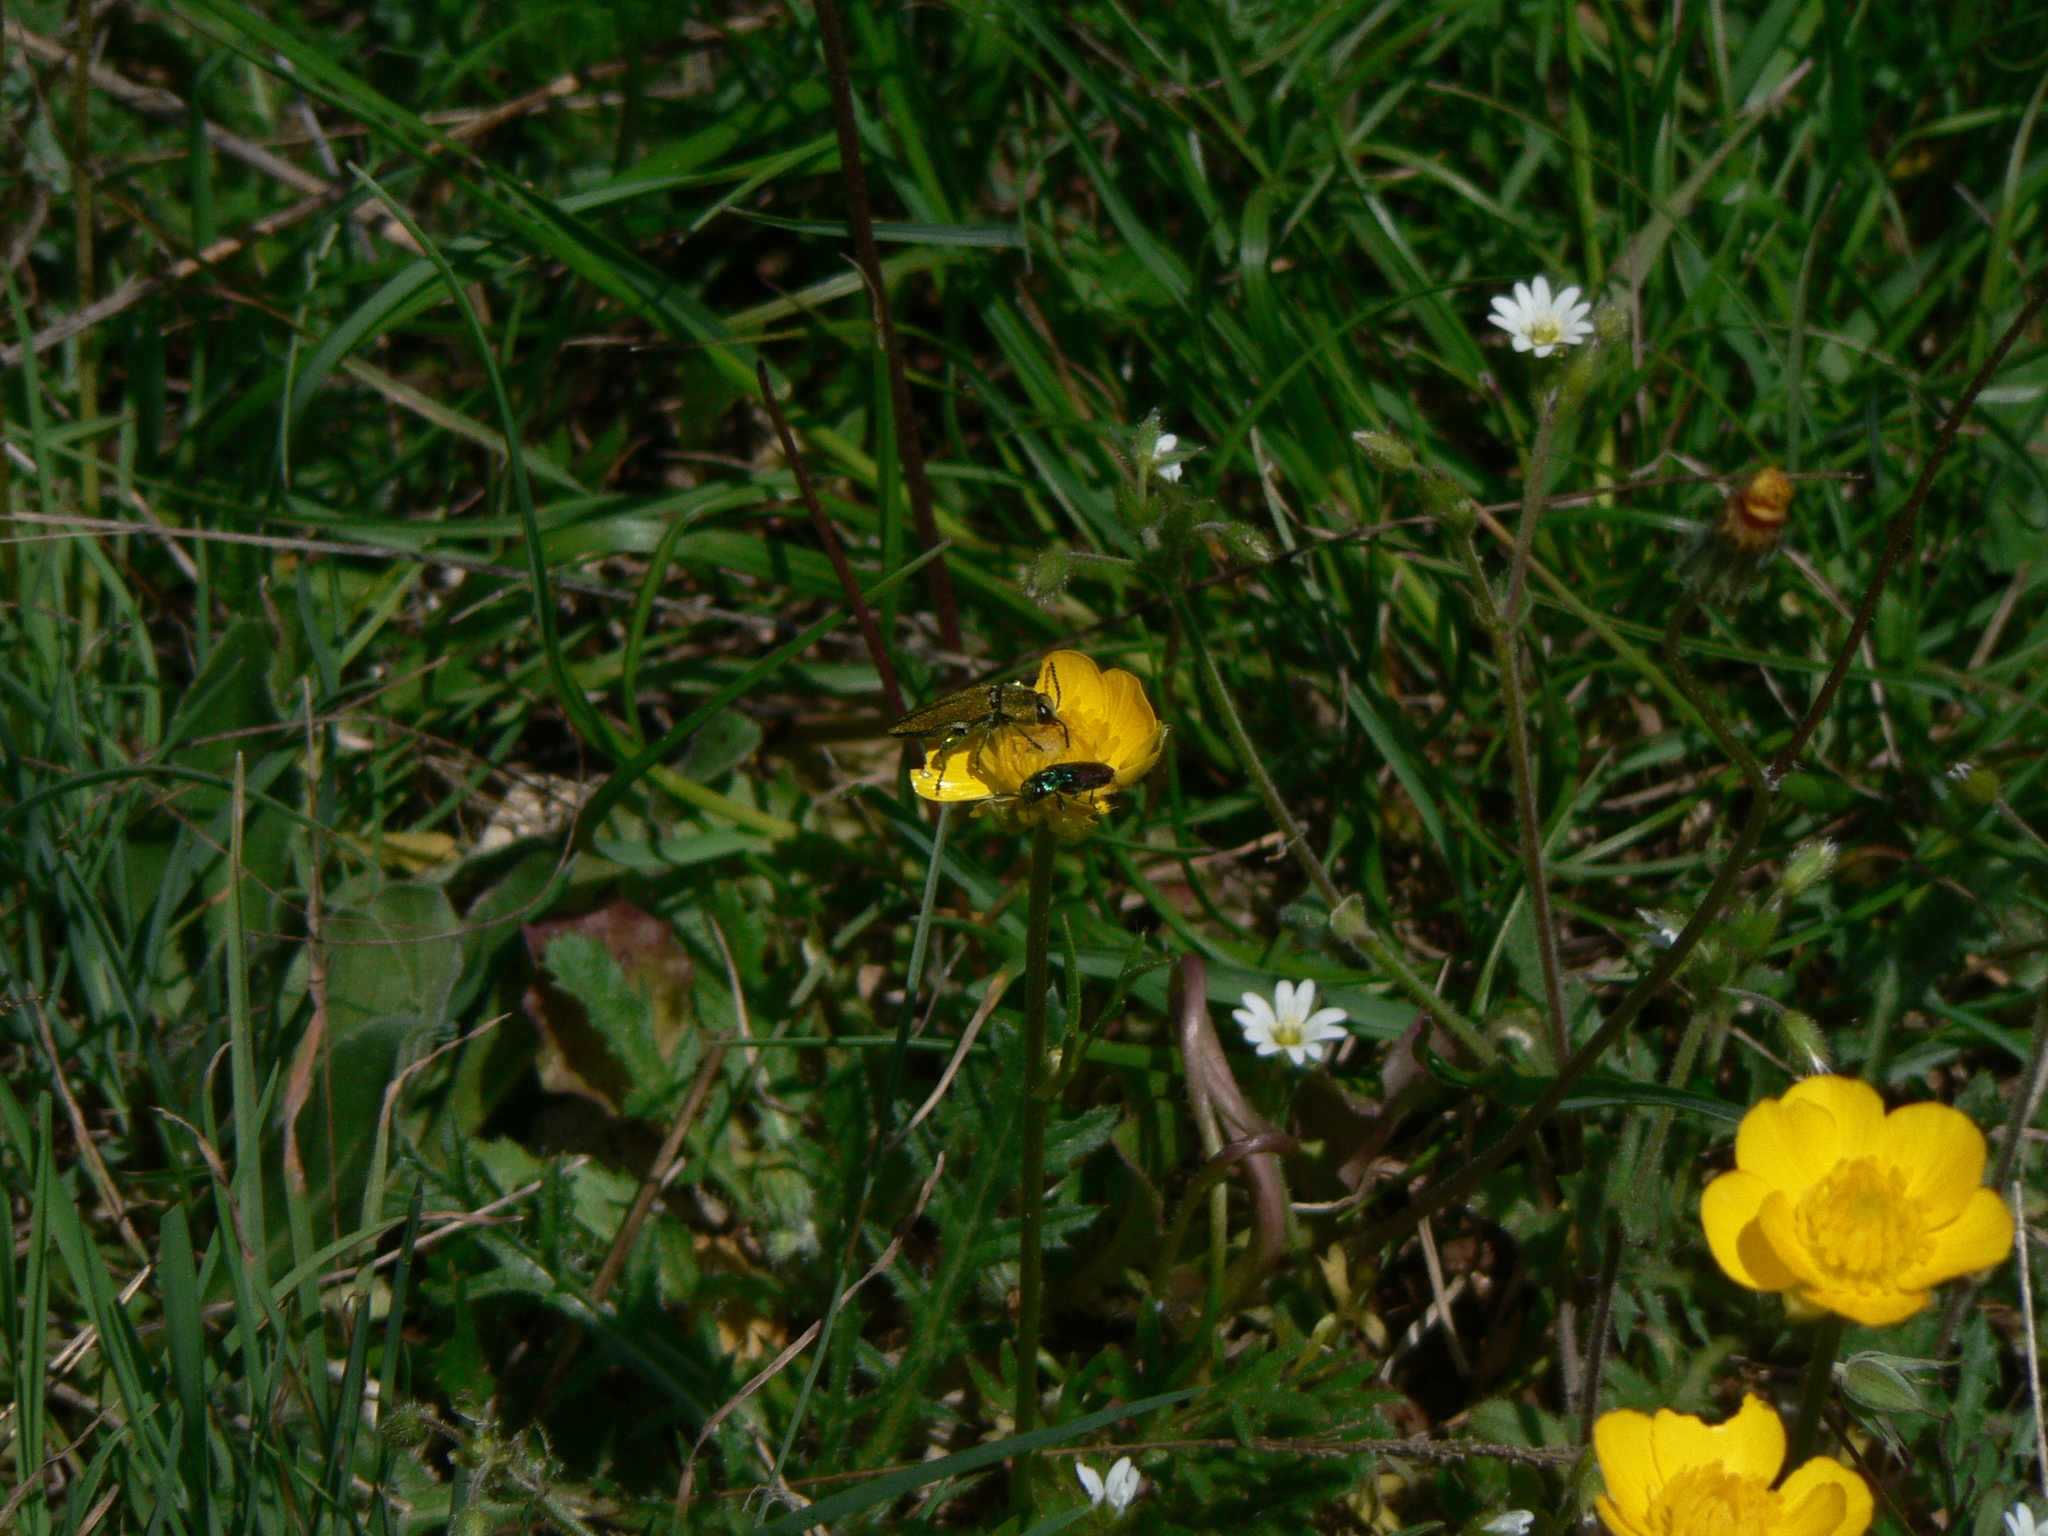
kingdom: Animalia
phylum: Arthropoda
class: Insecta
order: Coleoptera
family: Buprestidae
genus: Anthaxia
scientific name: Anthaxia hungarica
